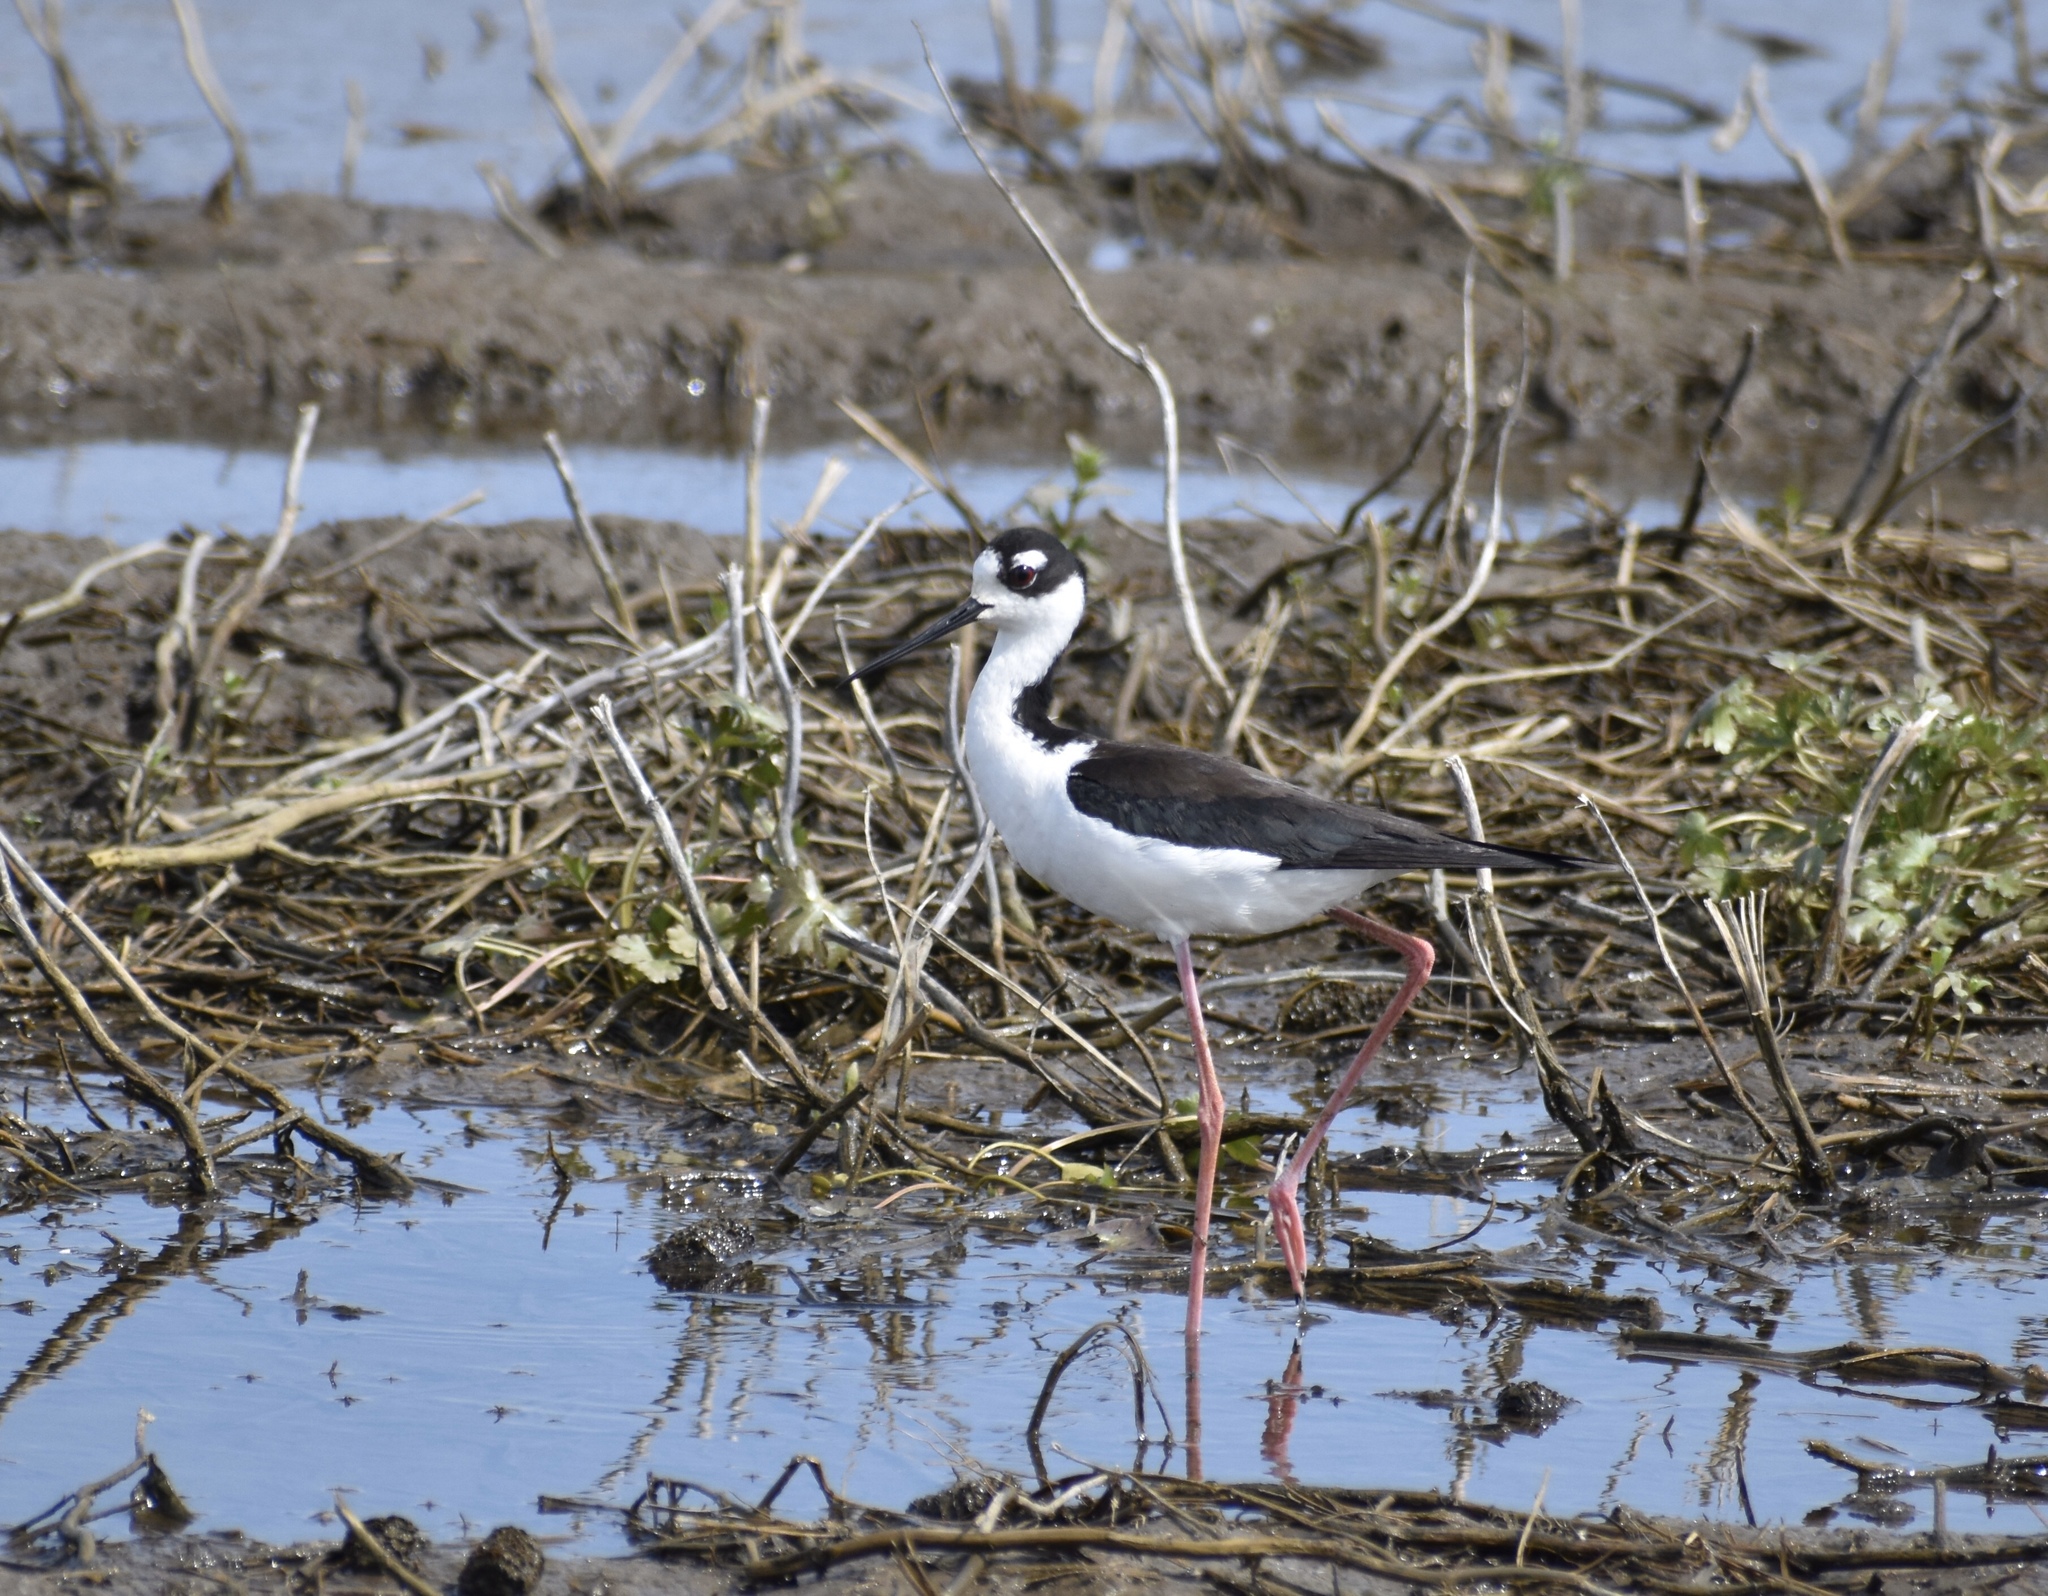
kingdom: Animalia
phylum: Chordata
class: Aves
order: Charadriiformes
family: Recurvirostridae
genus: Himantopus
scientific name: Himantopus mexicanus
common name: Black-necked stilt
